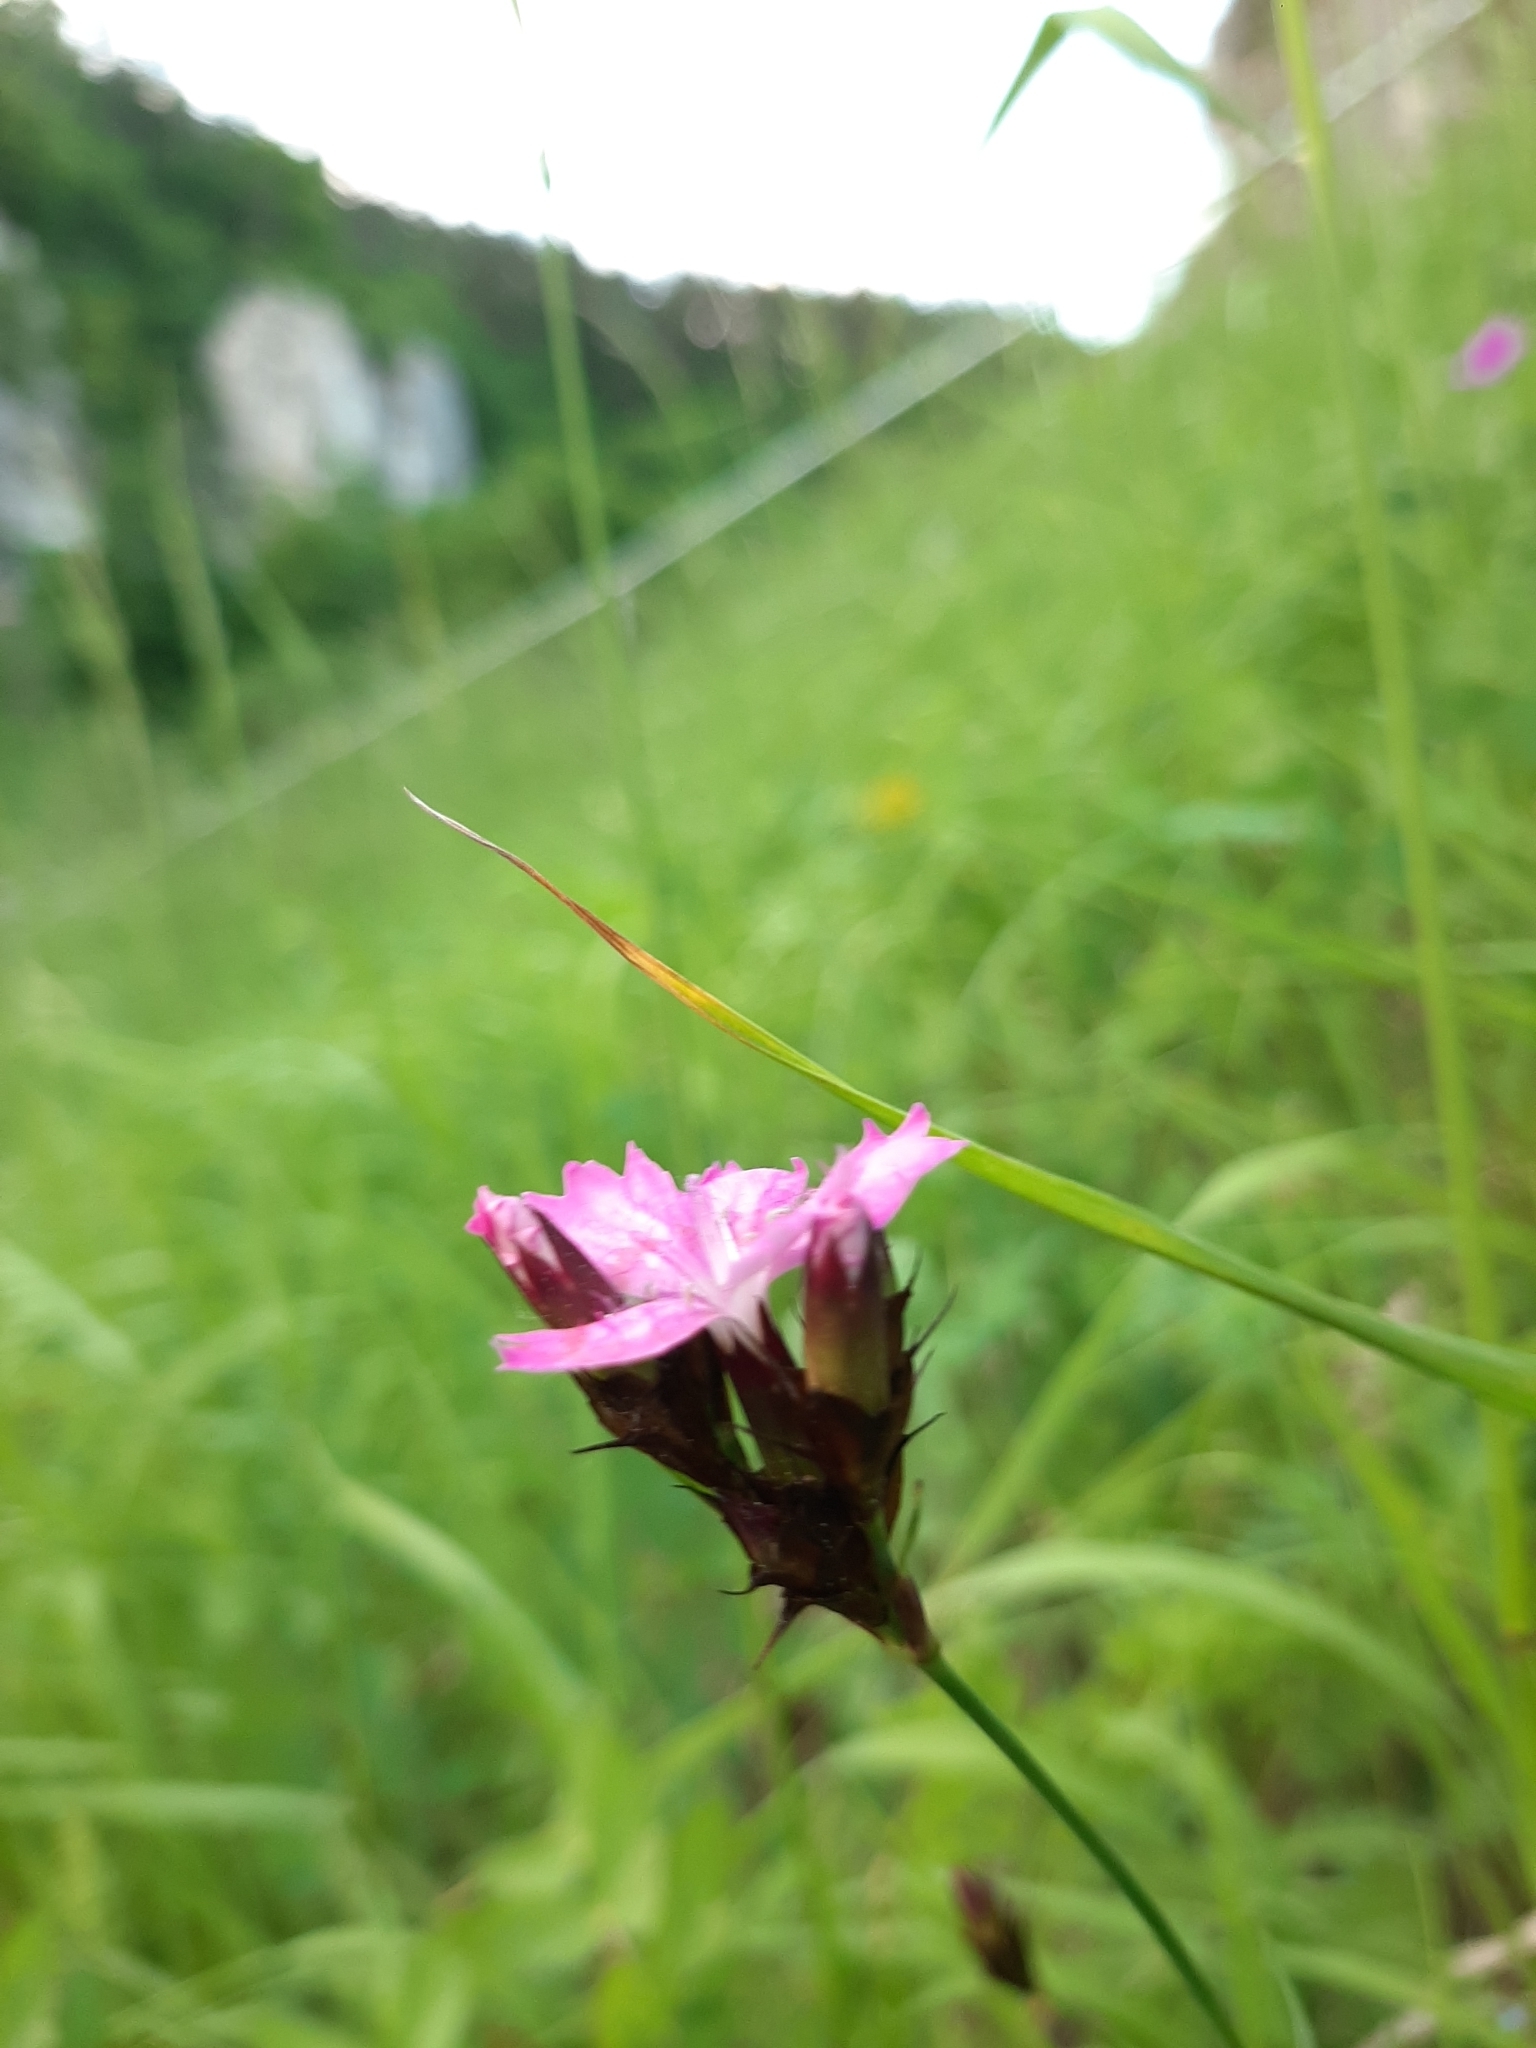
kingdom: Plantae
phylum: Tracheophyta
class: Magnoliopsida
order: Caryophyllales
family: Caryophyllaceae
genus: Dianthus
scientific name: Dianthus carthusianorum
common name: Carthusian pink
